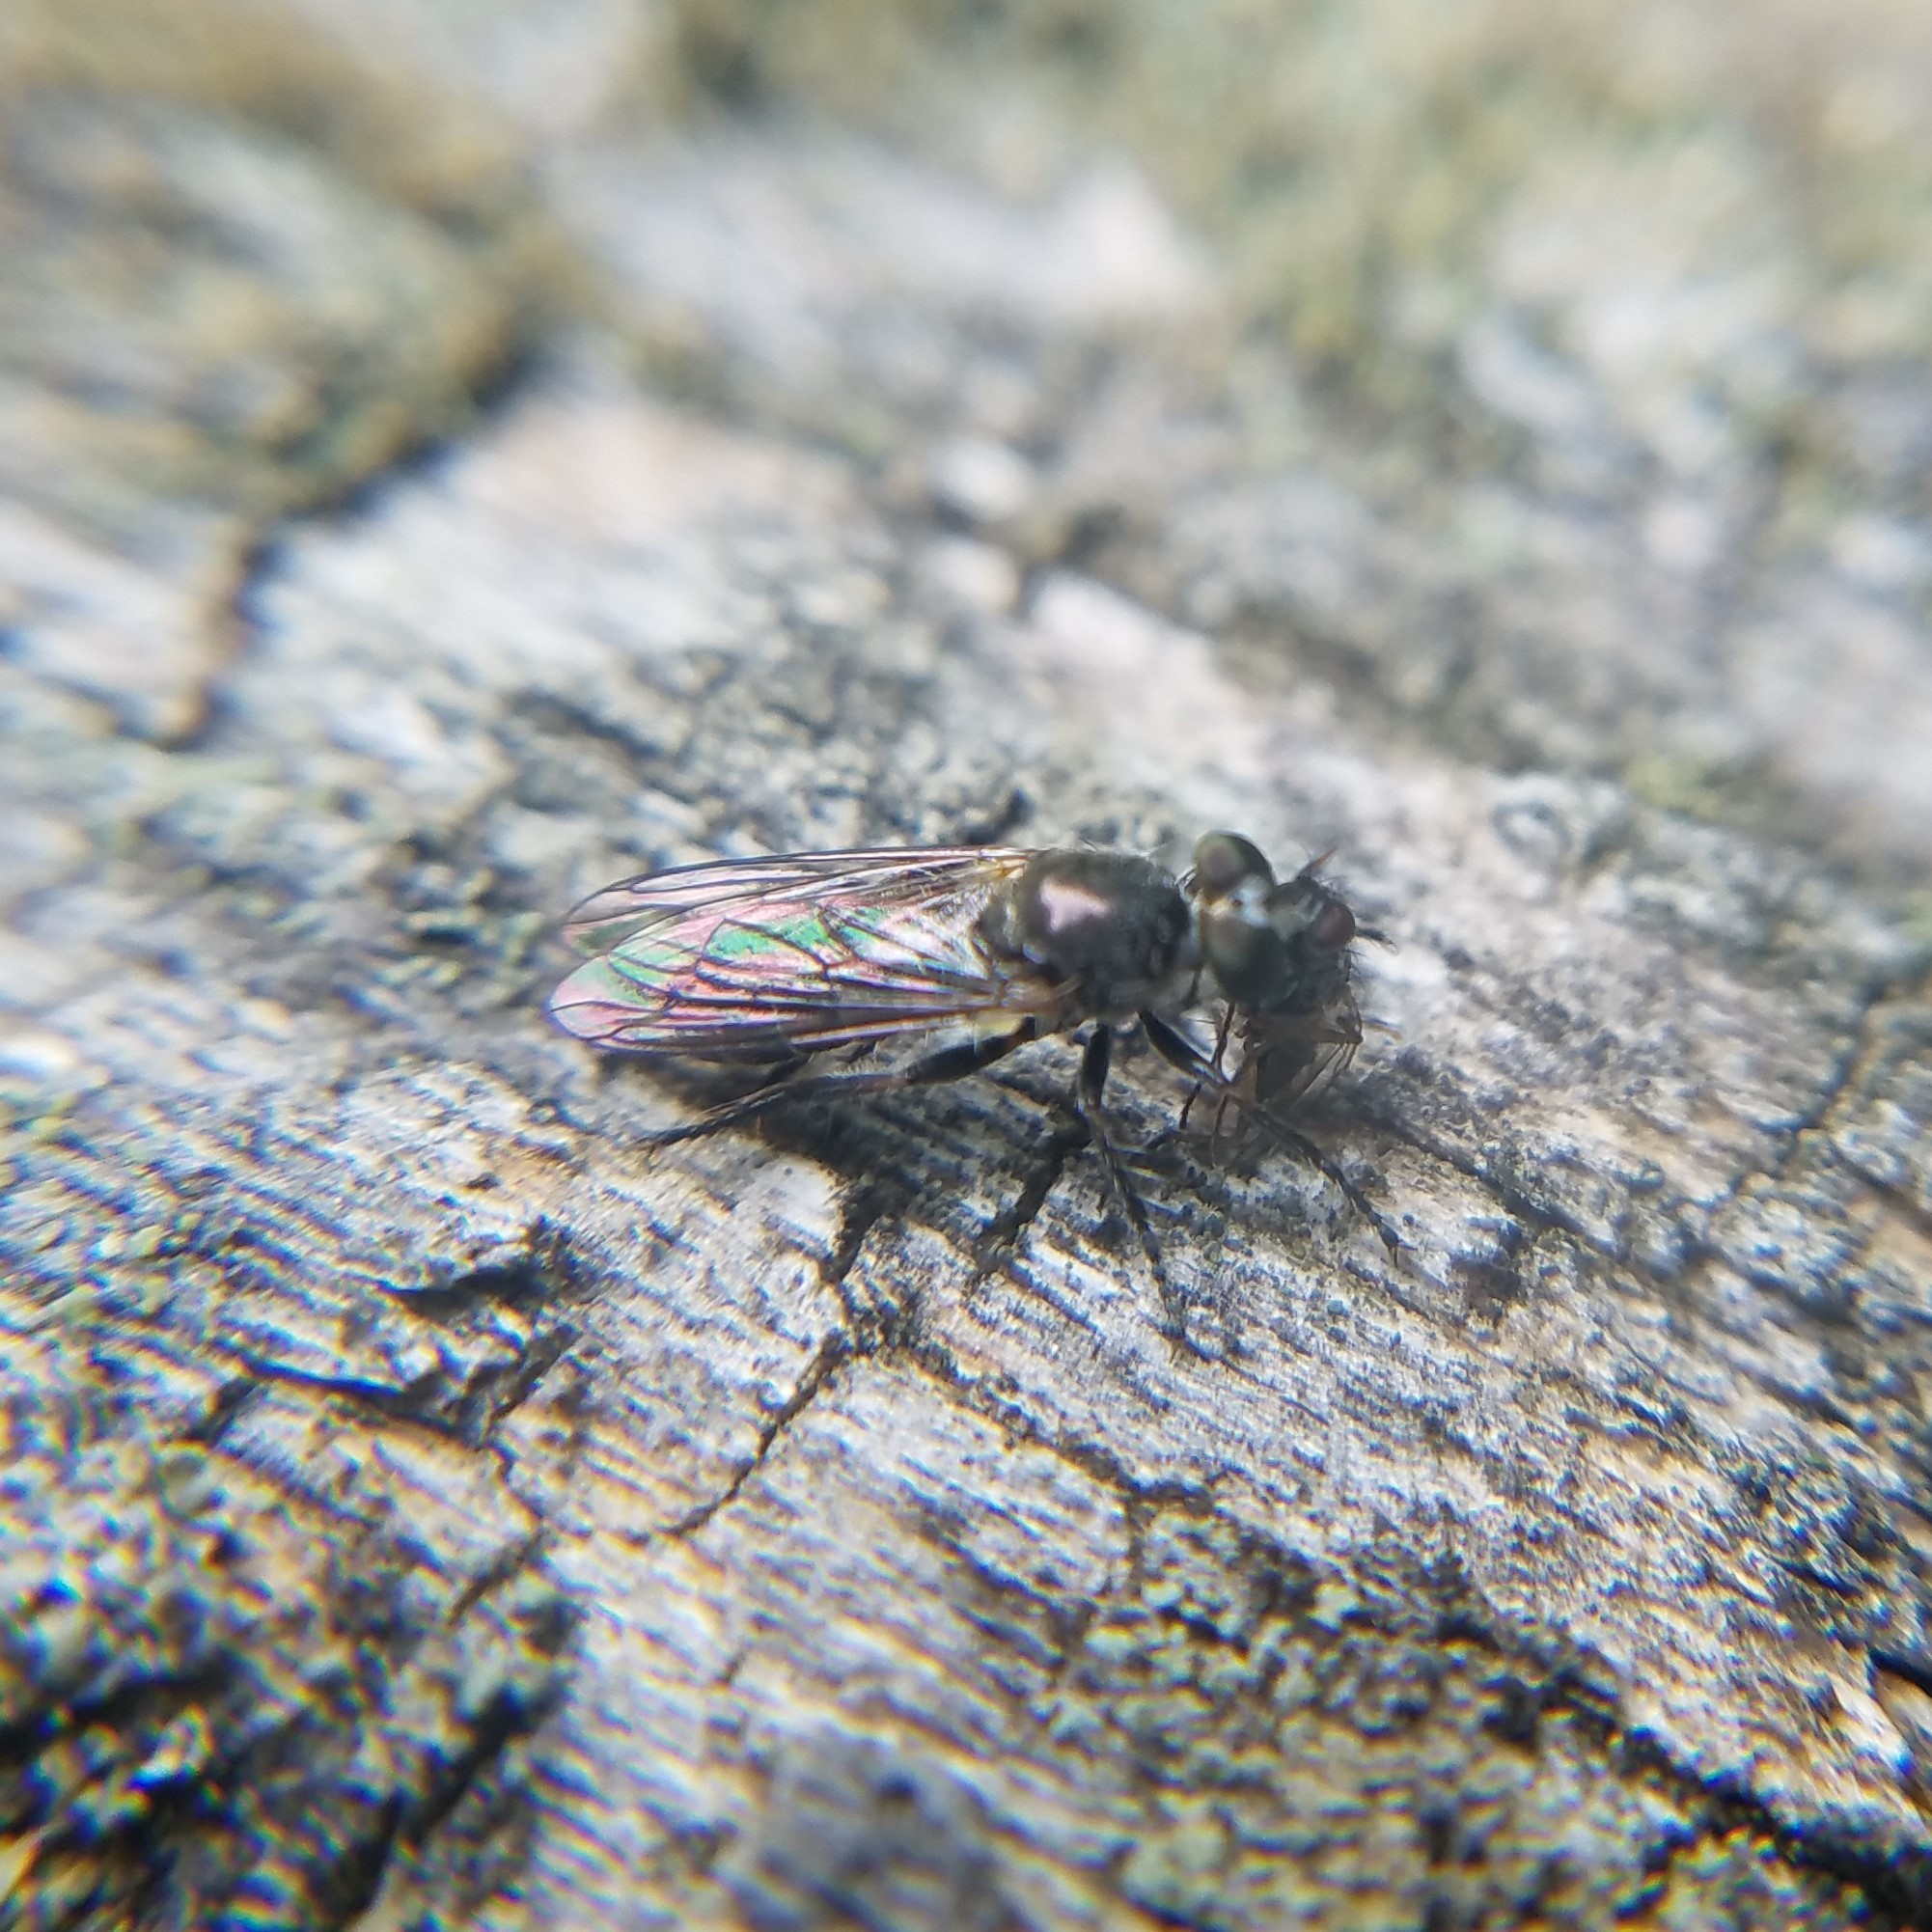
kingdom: Animalia
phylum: Arthropoda
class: Insecta
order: Diptera
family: Asilidae
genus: Atomosia
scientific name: Atomosia puella
